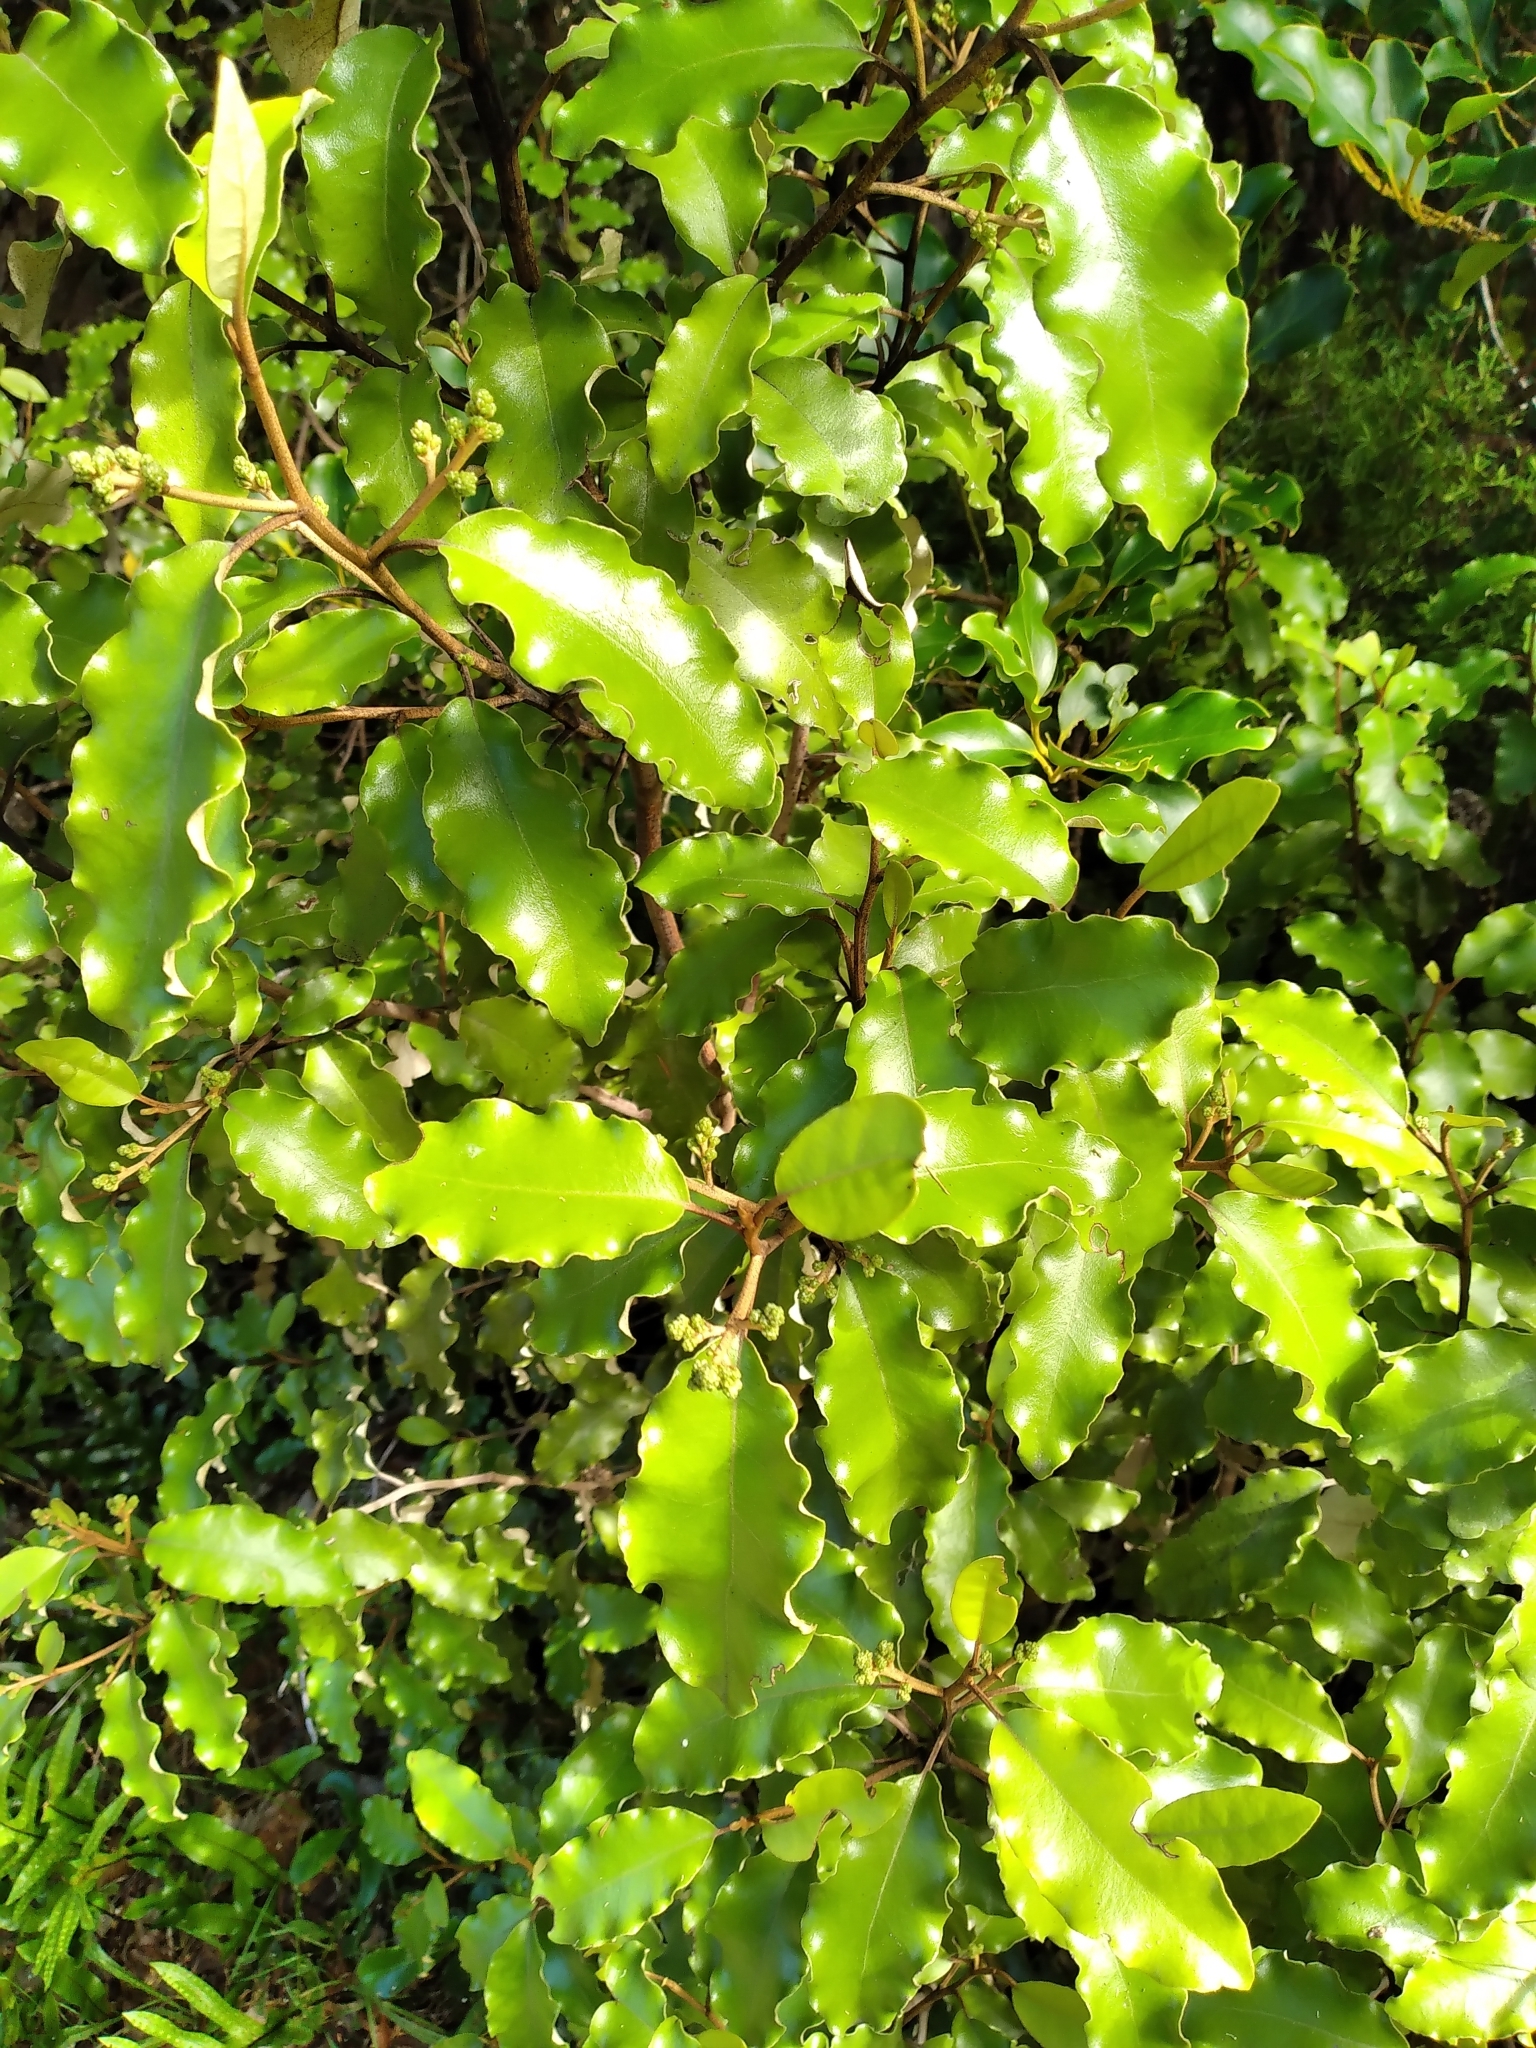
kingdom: Plantae
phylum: Tracheophyta
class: Magnoliopsida
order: Asterales
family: Asteraceae
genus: Olearia
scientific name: Olearia paniculata
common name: Akiraho
